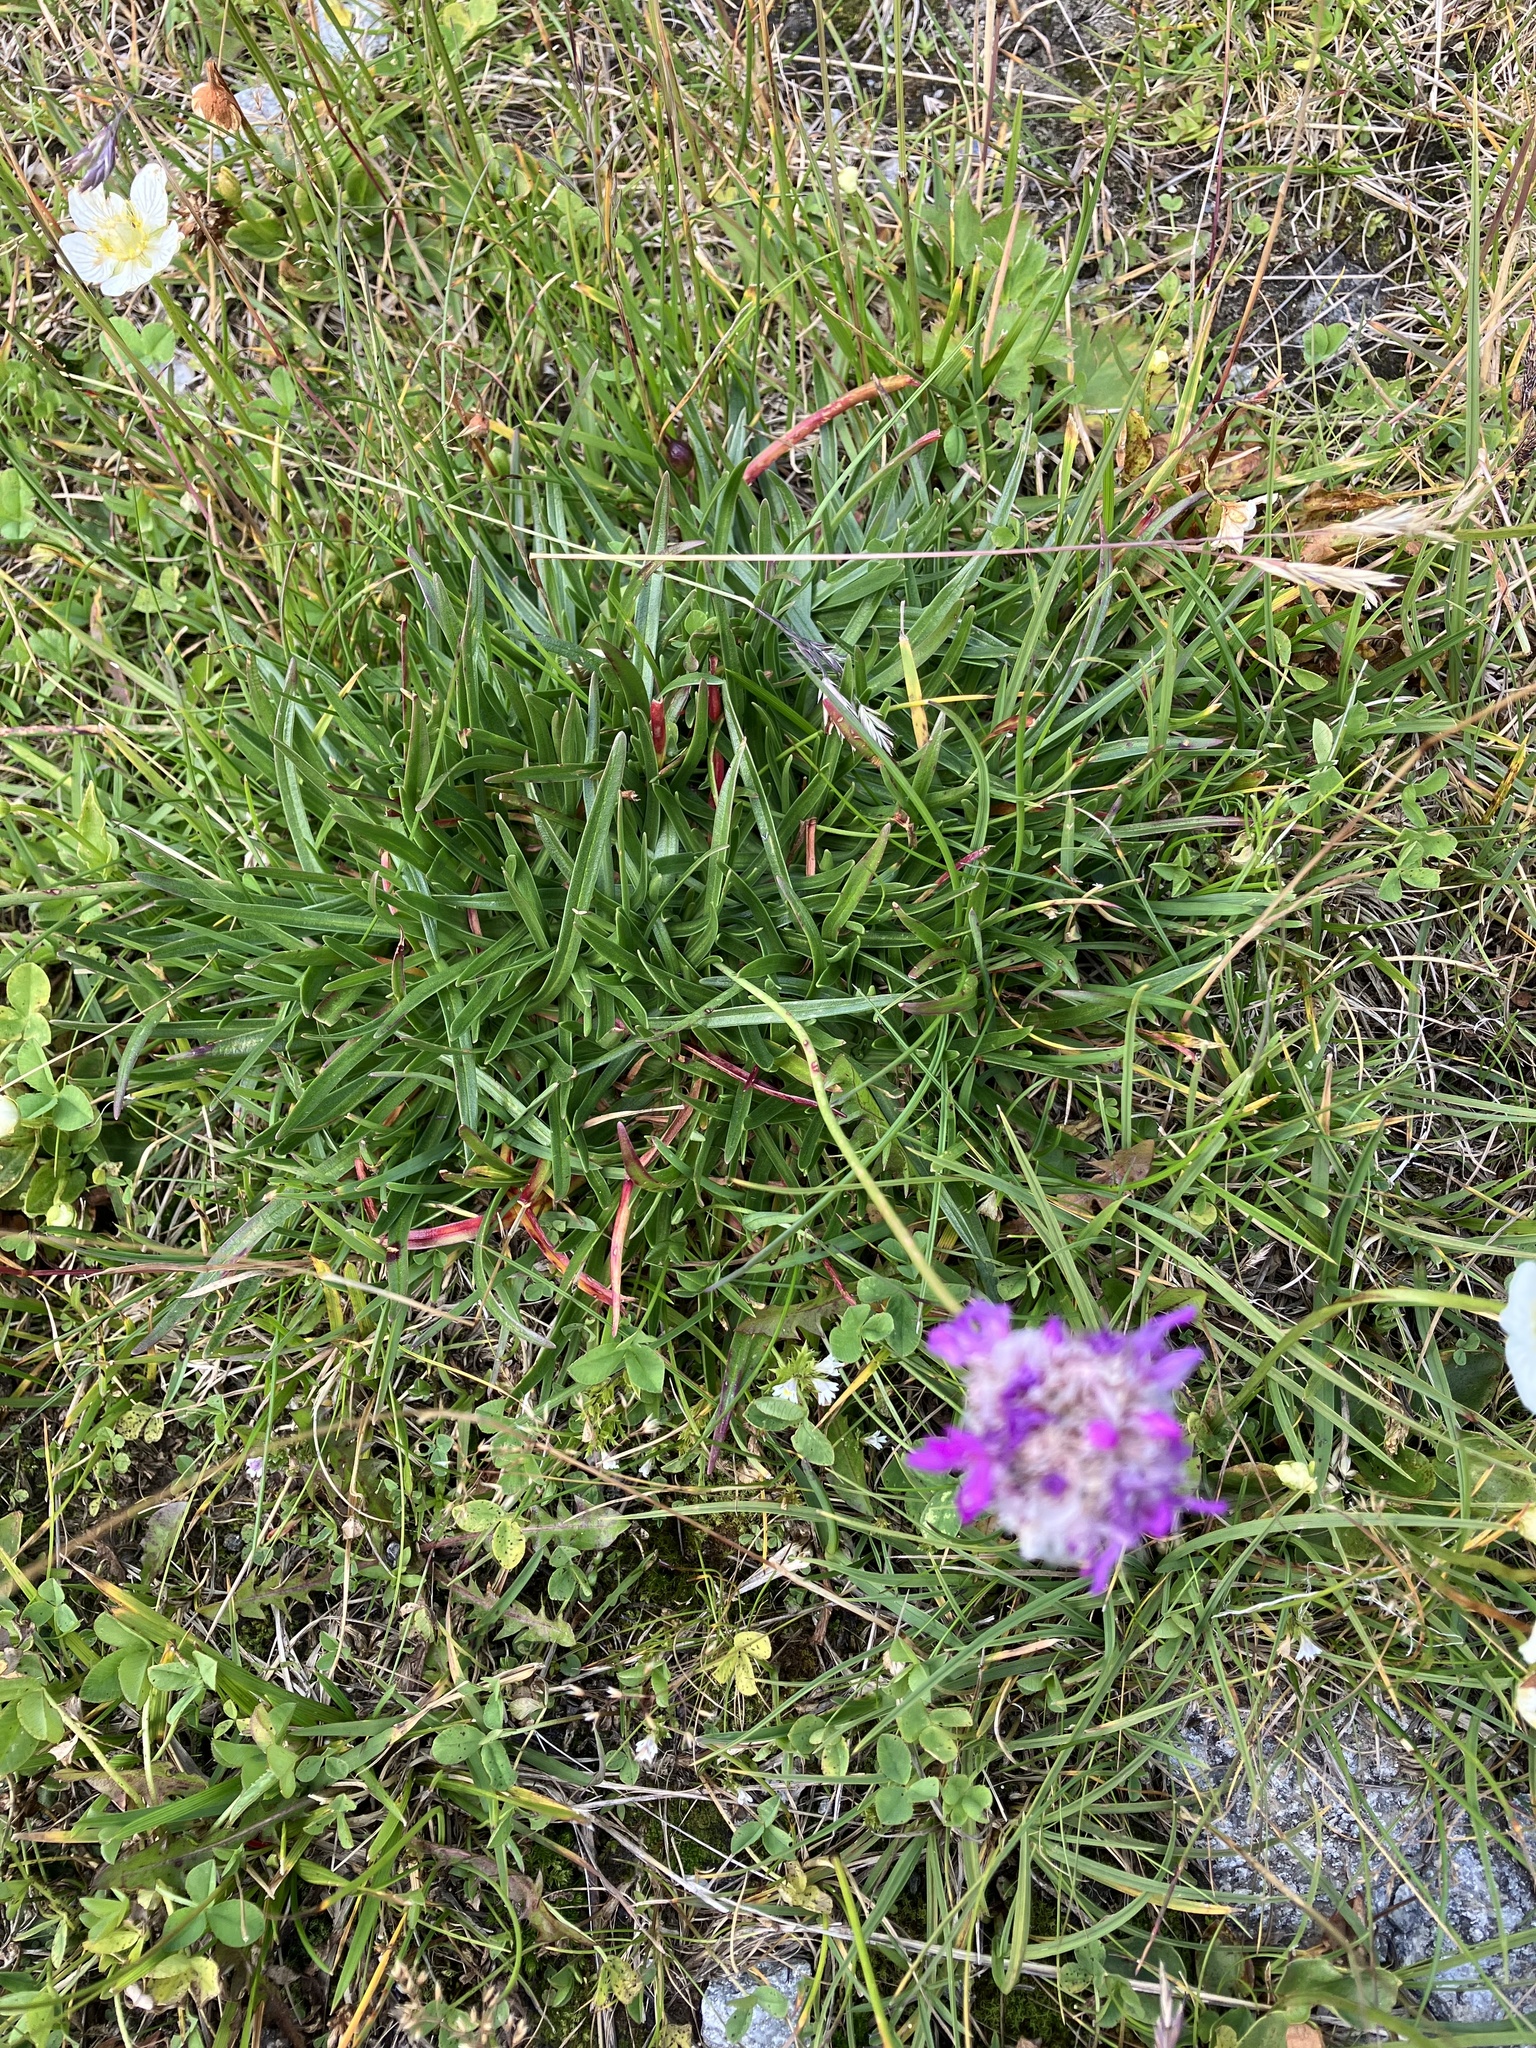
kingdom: Plantae
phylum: Tracheophyta
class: Magnoliopsida
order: Caryophyllales
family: Plumbaginaceae
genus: Armeria
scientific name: Armeria alpina
